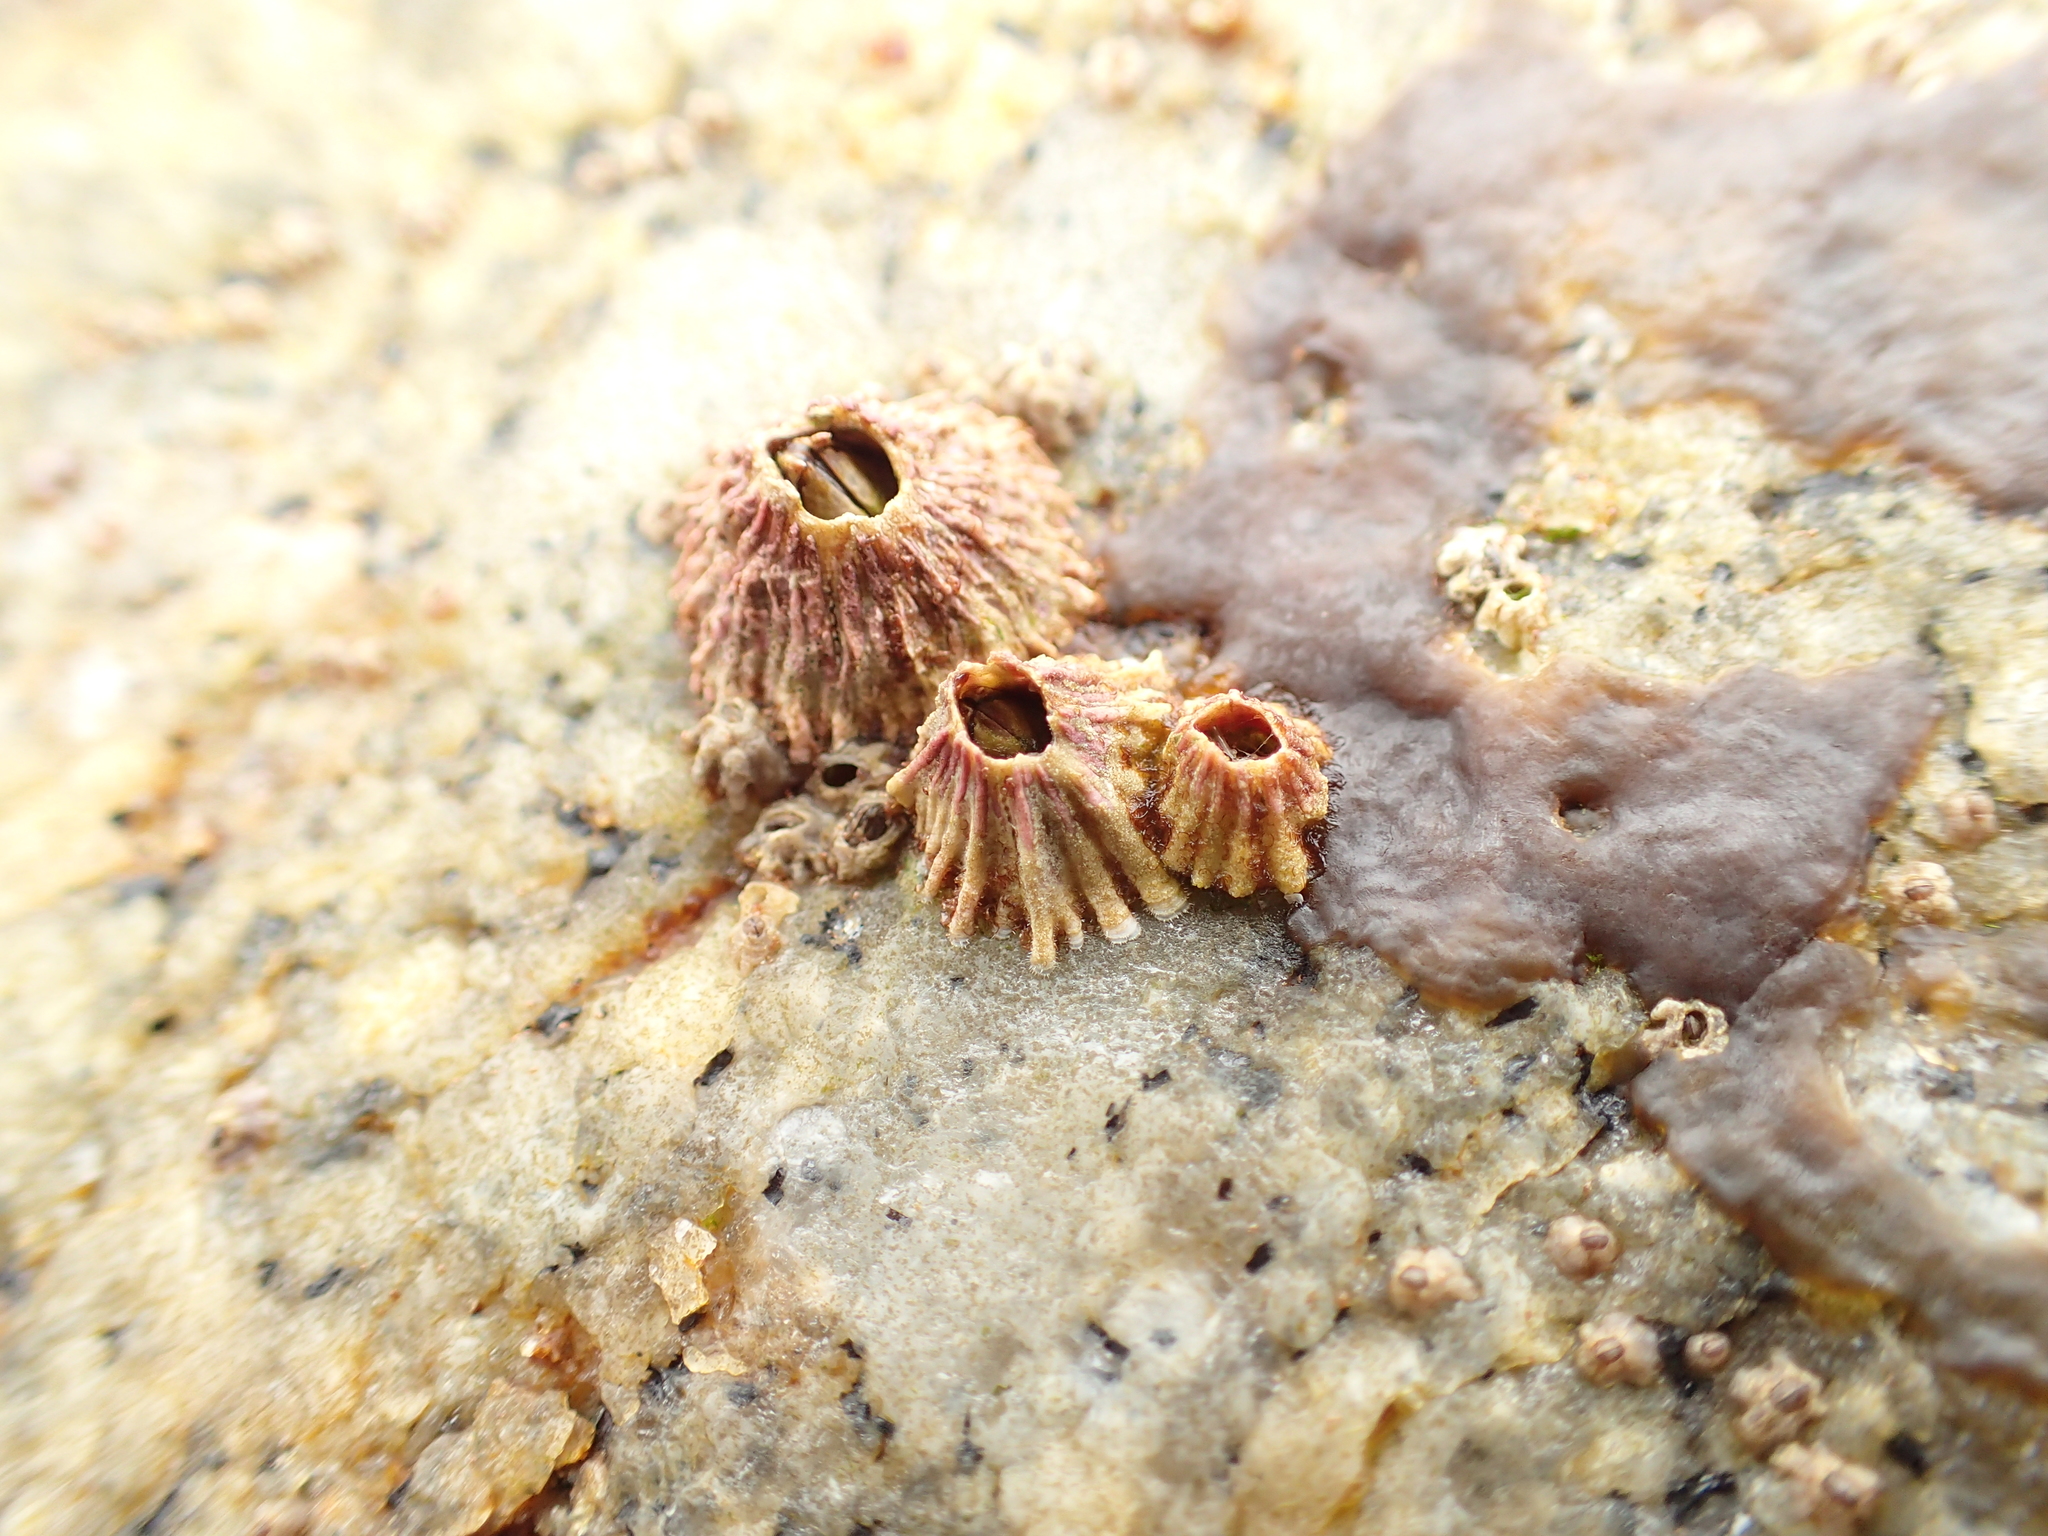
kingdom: Animalia
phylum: Arthropoda
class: Maxillopoda
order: Sessilia
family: Tetraclitidae
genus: Tetraclita
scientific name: Tetraclita rubescens
